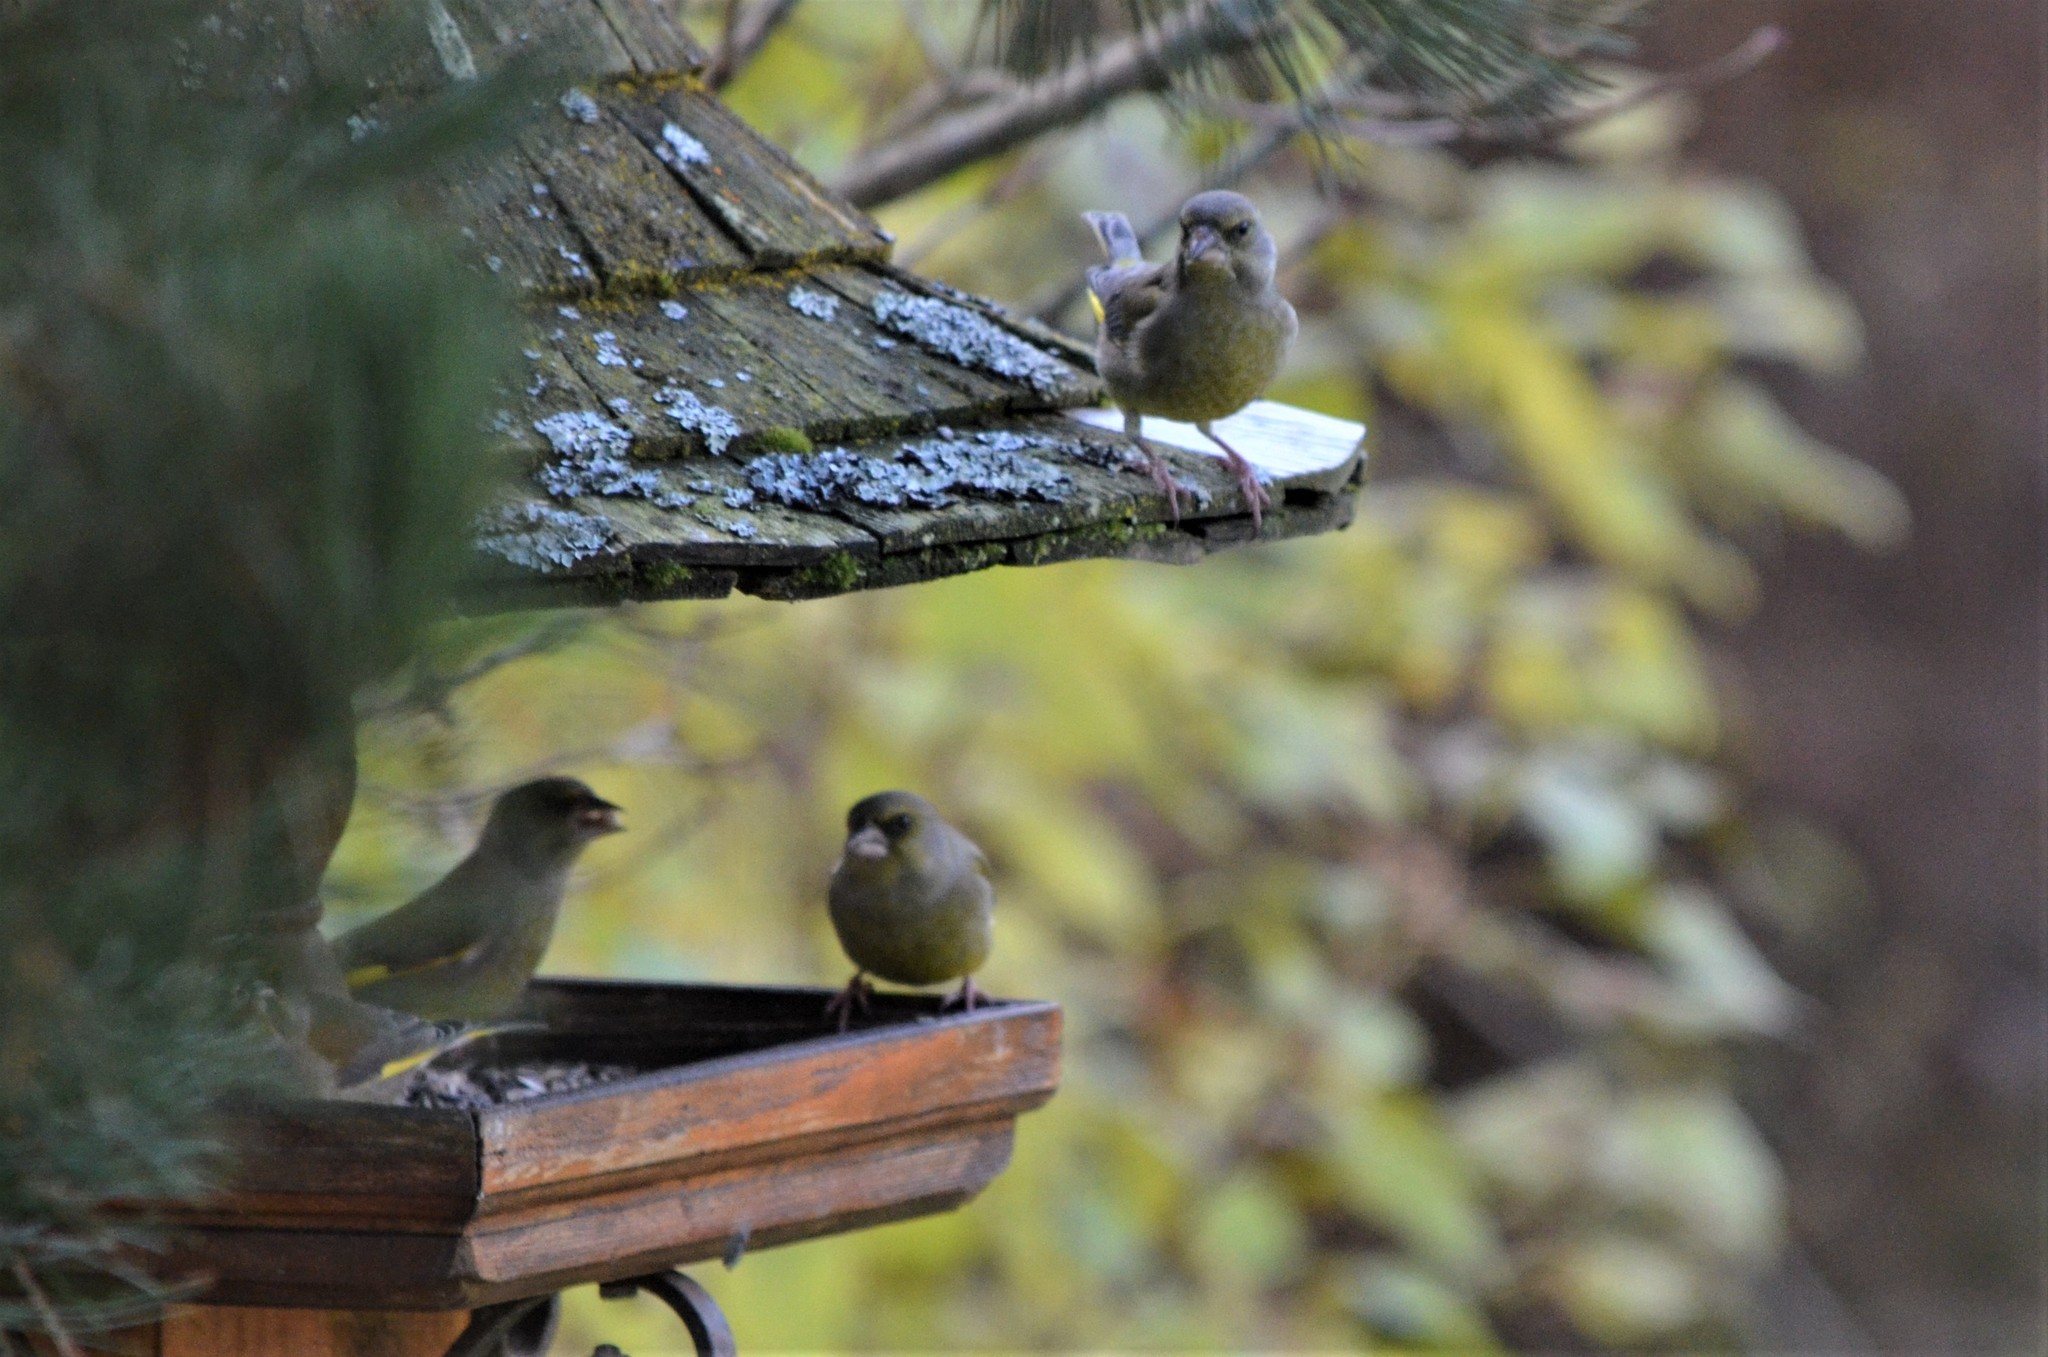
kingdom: Plantae
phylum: Tracheophyta
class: Liliopsida
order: Poales
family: Poaceae
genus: Chloris
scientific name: Chloris chloris
